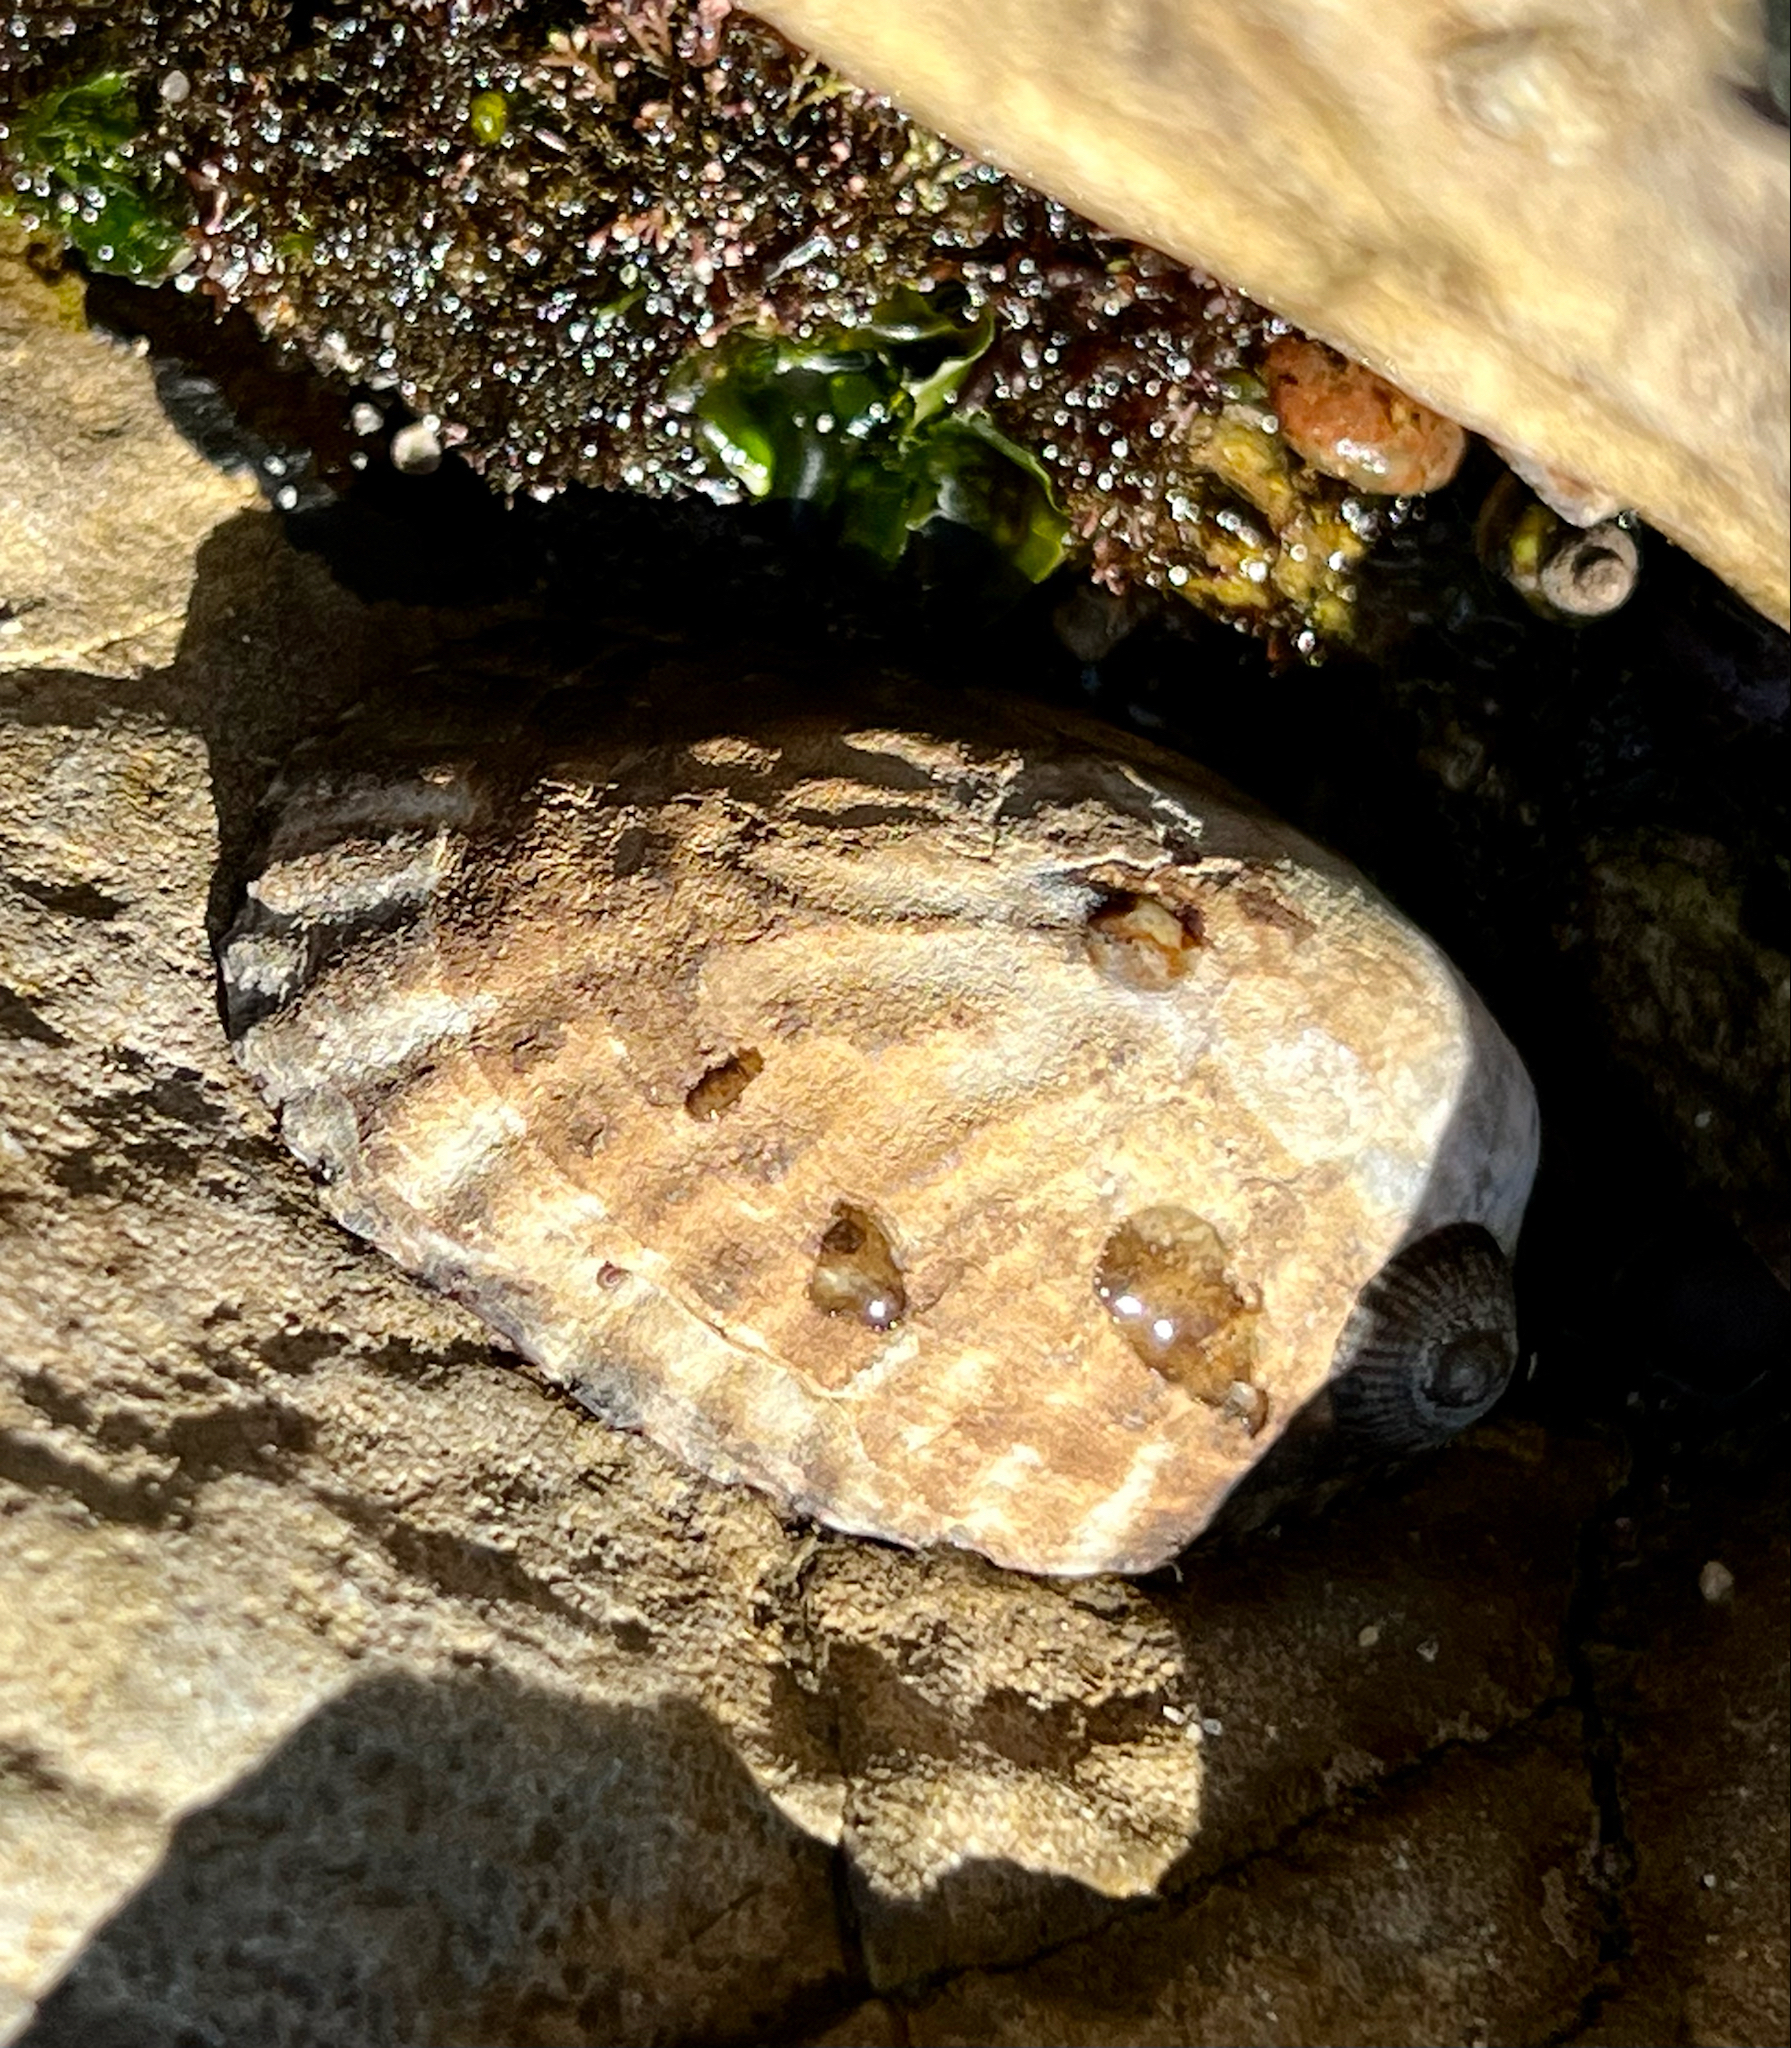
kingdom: Animalia
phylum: Mollusca
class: Gastropoda
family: Lottiidae
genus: Lottia
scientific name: Lottia gigantea
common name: Owl limpet
